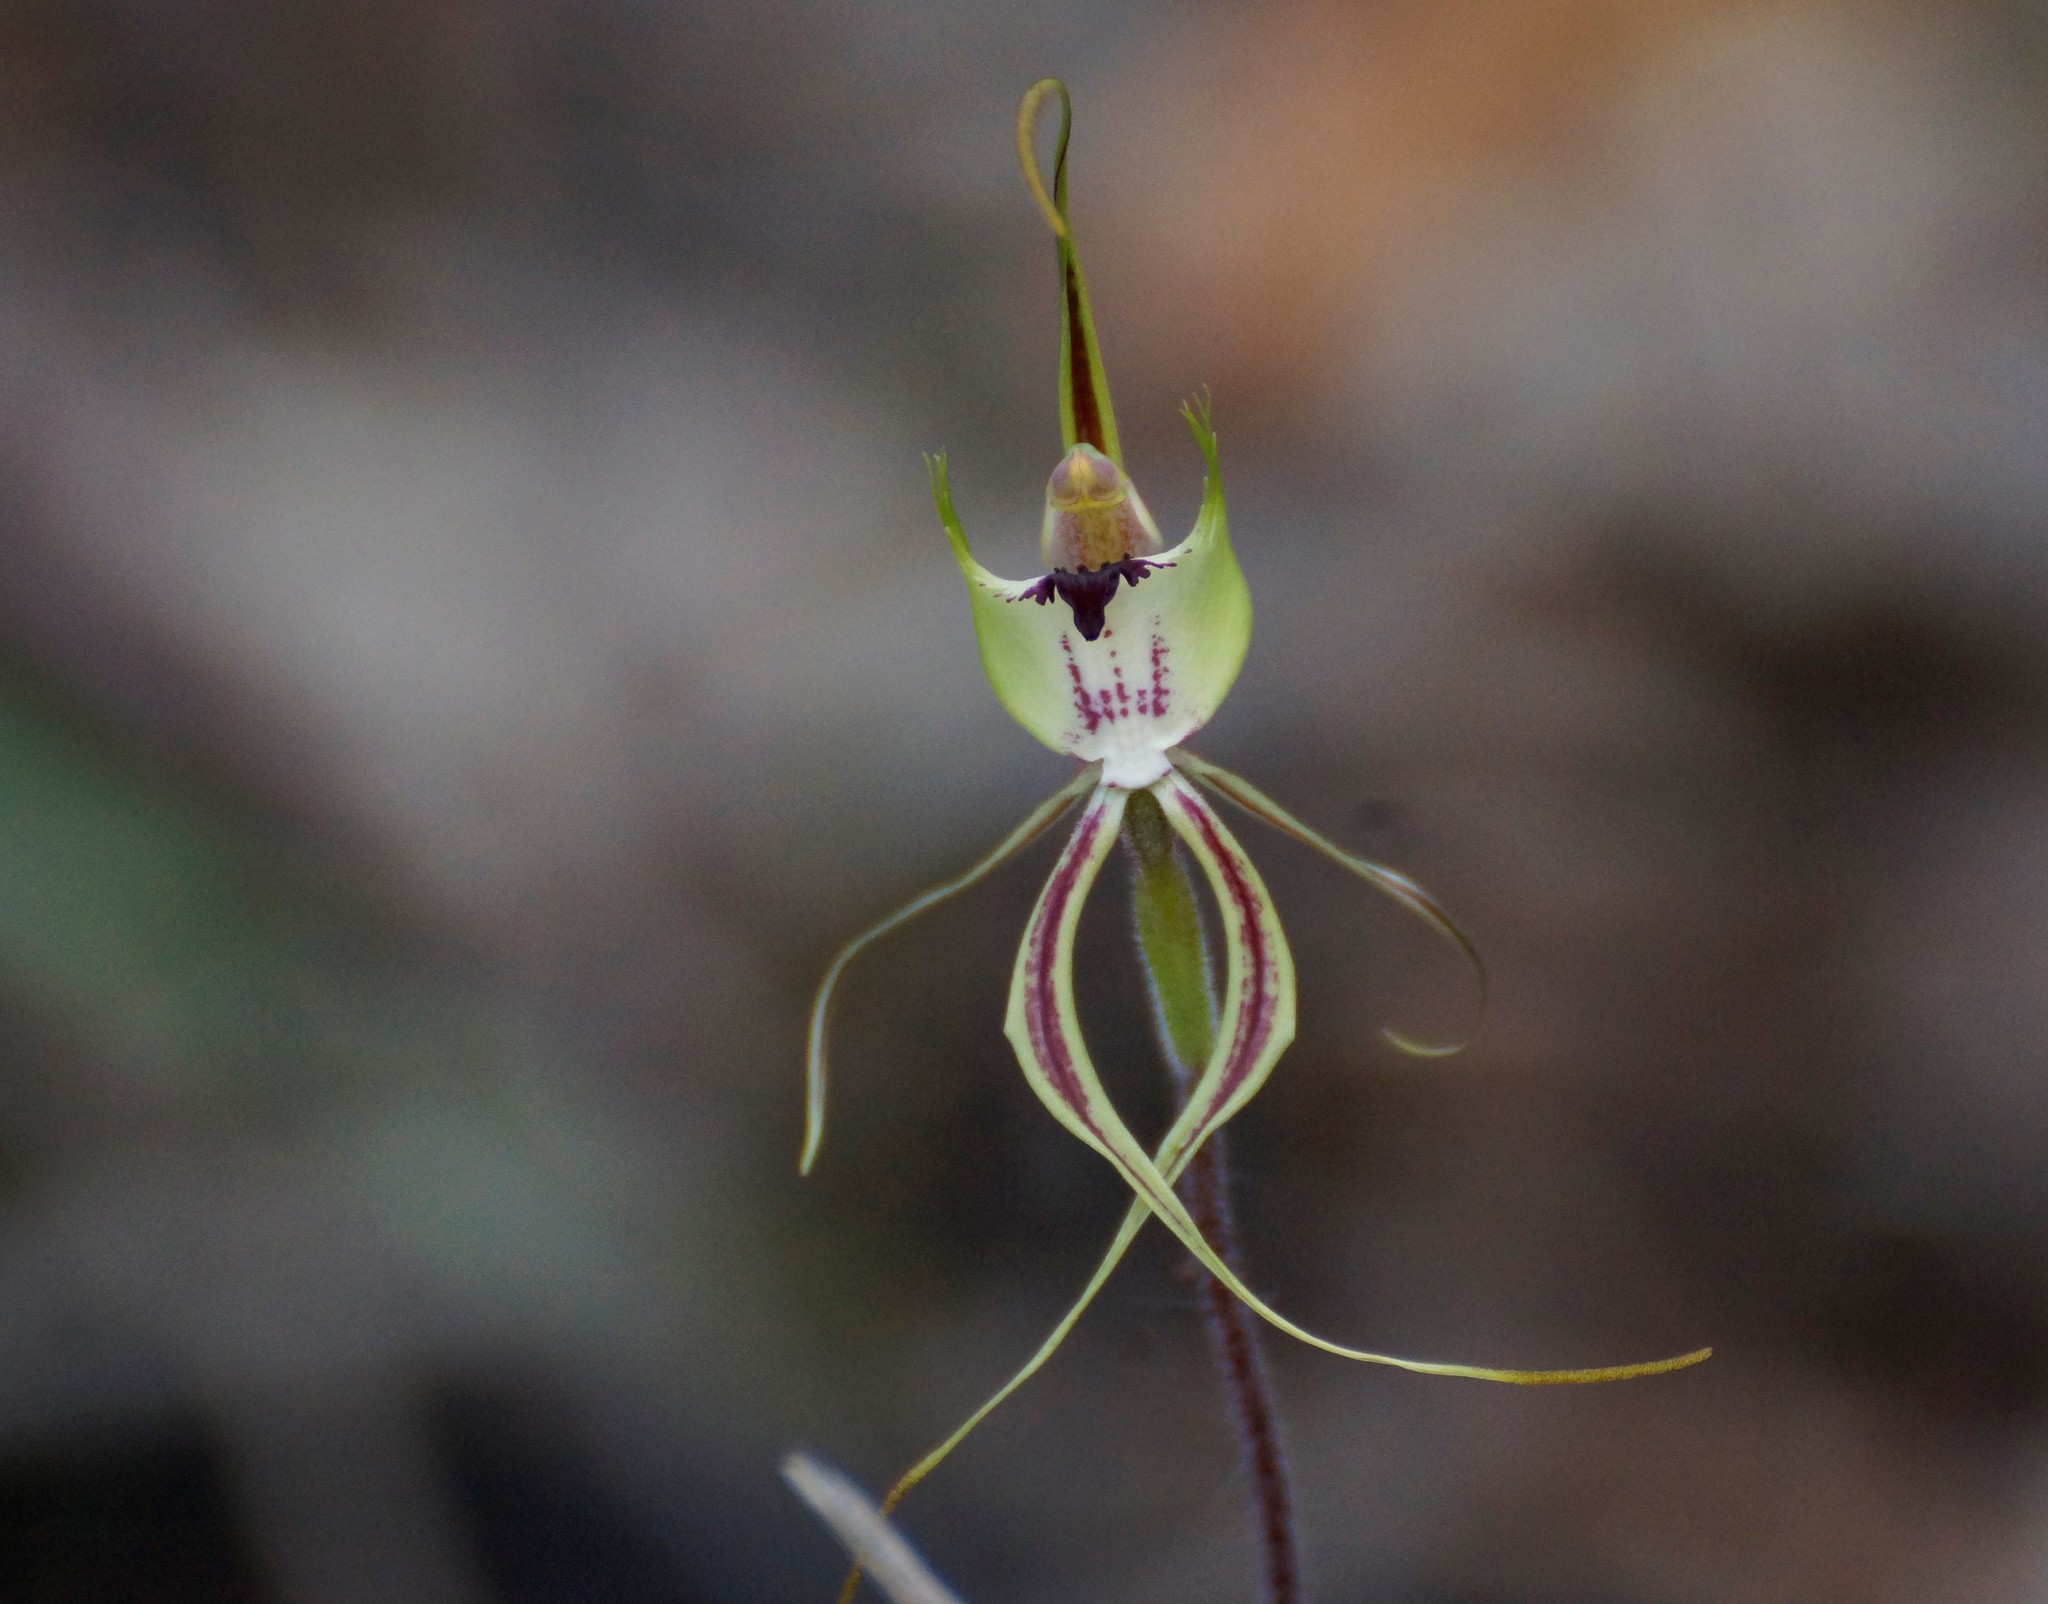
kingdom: Plantae
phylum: Tracheophyta
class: Liliopsida
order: Asparagales
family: Orchidaceae
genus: Caladenia
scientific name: Caladenia tentaculata
